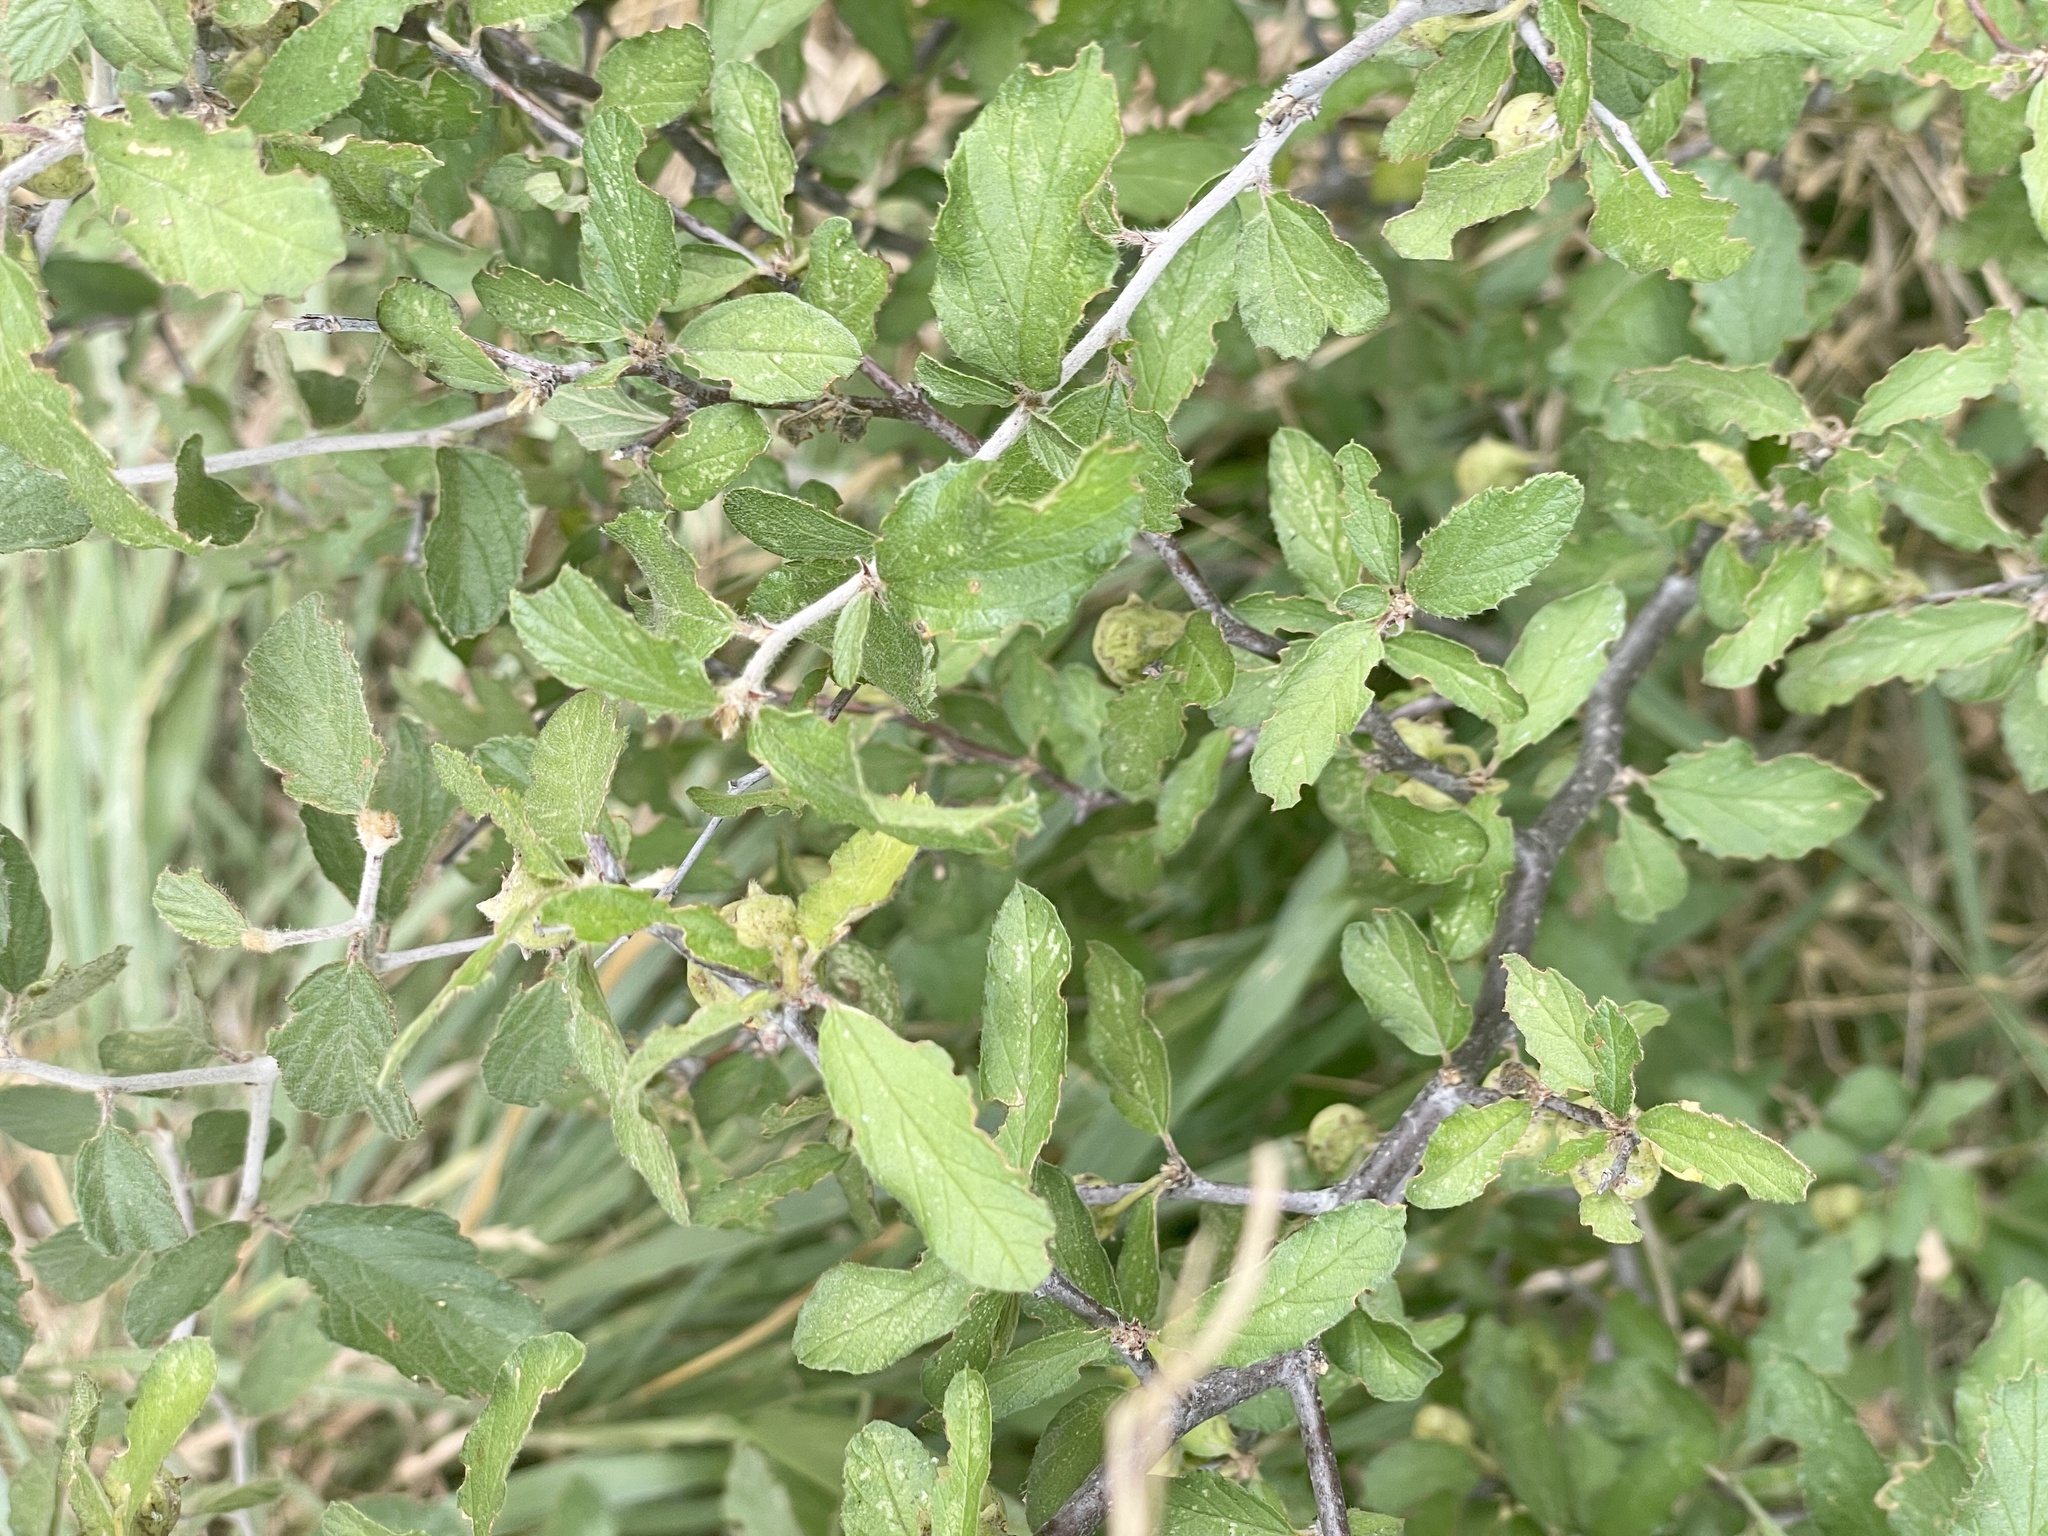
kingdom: Plantae
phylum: Tracheophyta
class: Magnoliopsida
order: Rosales
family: Rhamnaceae
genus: Colubrina
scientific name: Colubrina texensis
